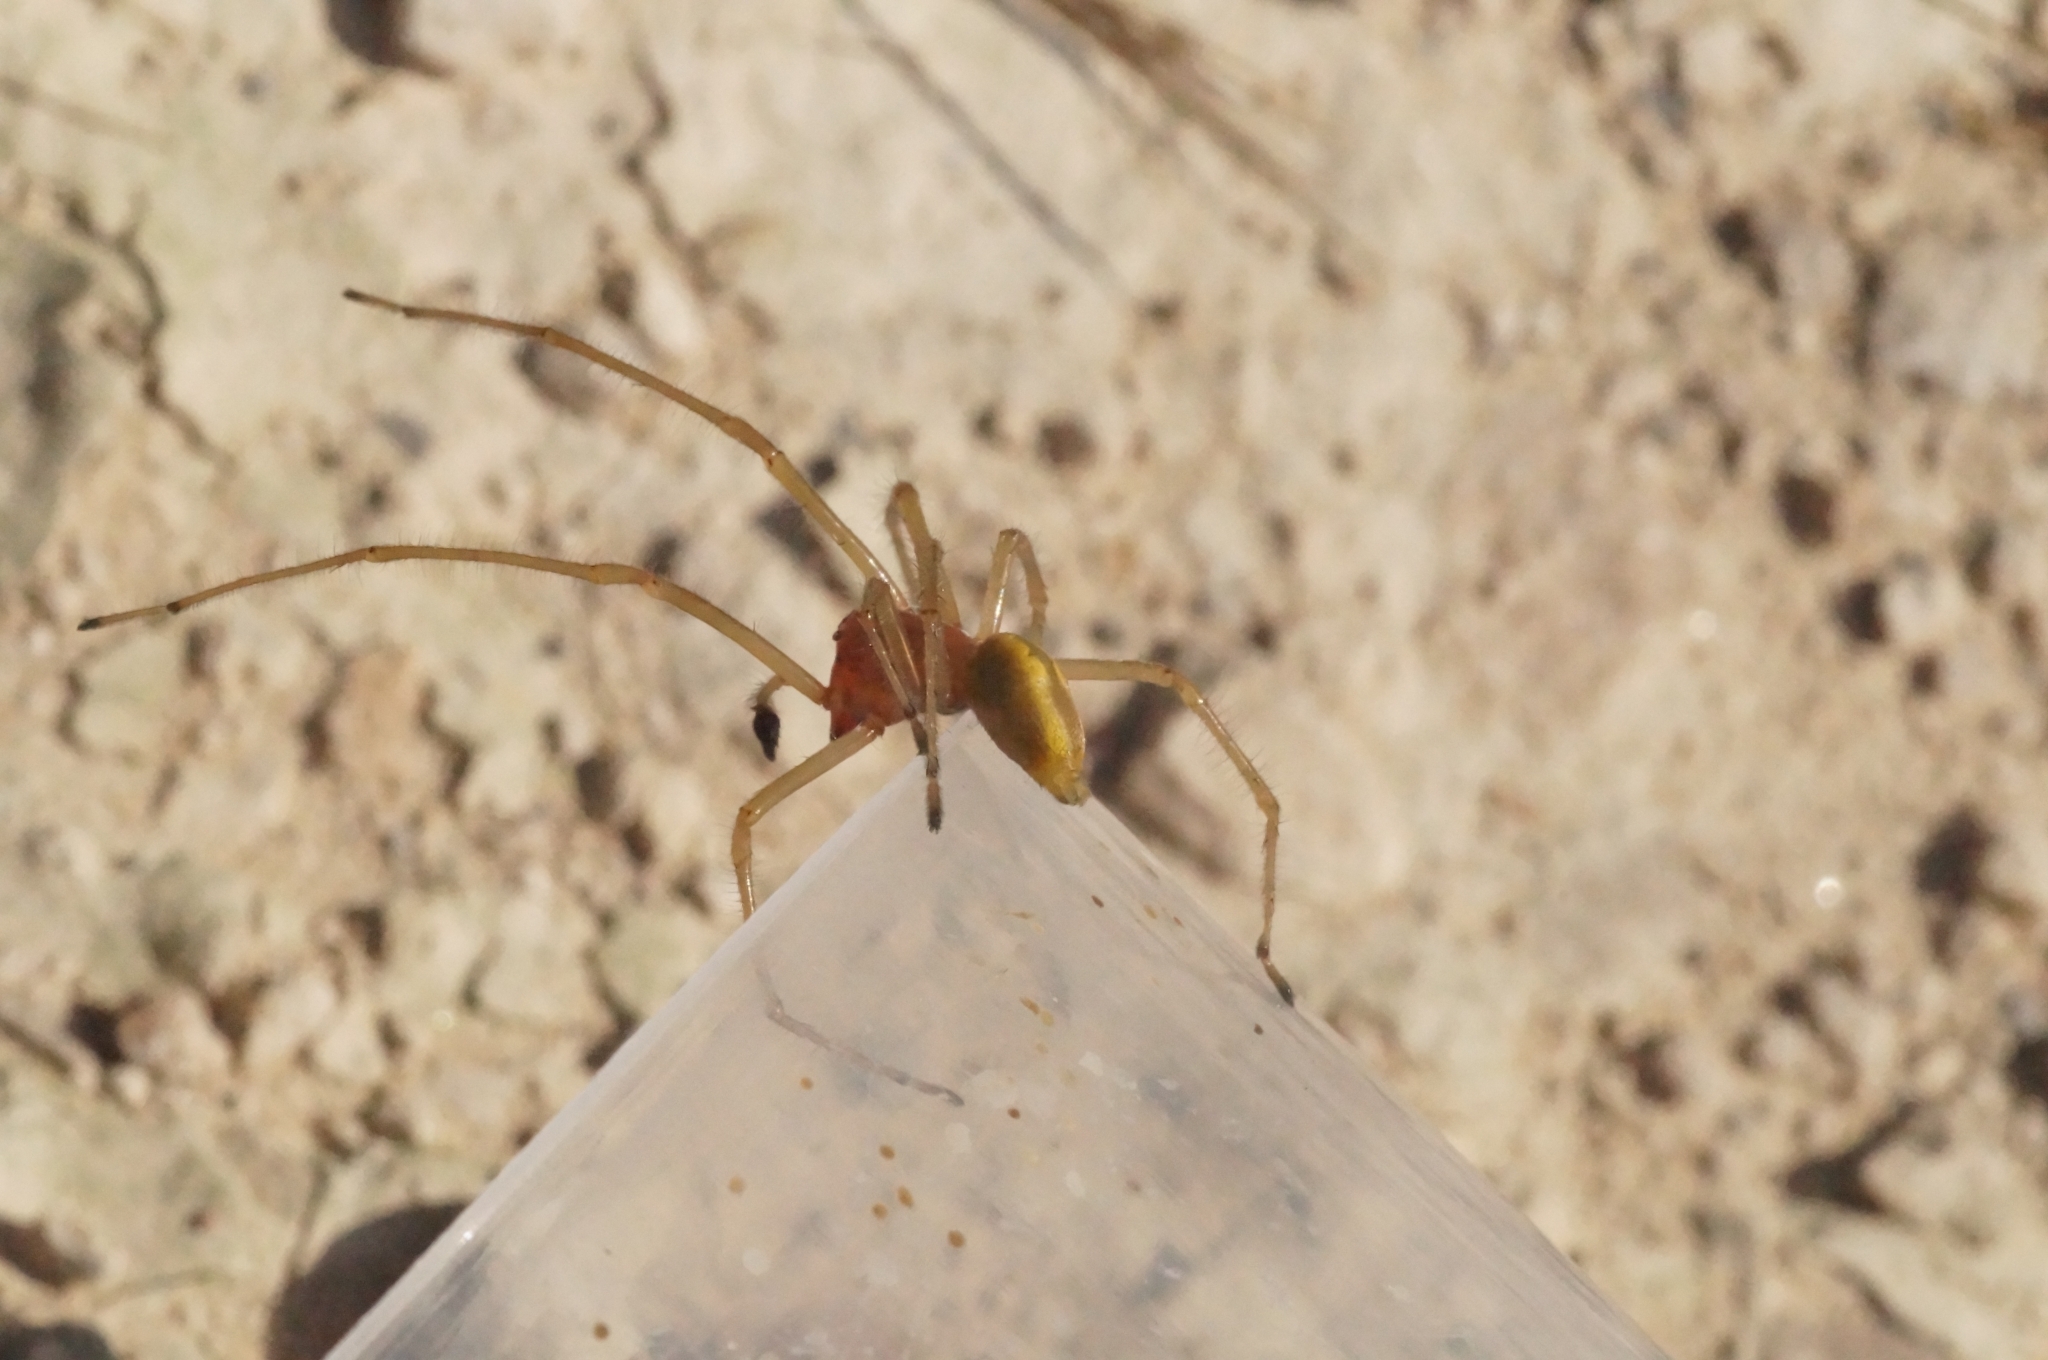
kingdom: Animalia
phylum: Arthropoda
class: Arachnida
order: Araneae
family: Cheiracanthiidae
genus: Cheiracanthium
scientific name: Cheiracanthium punctorium
